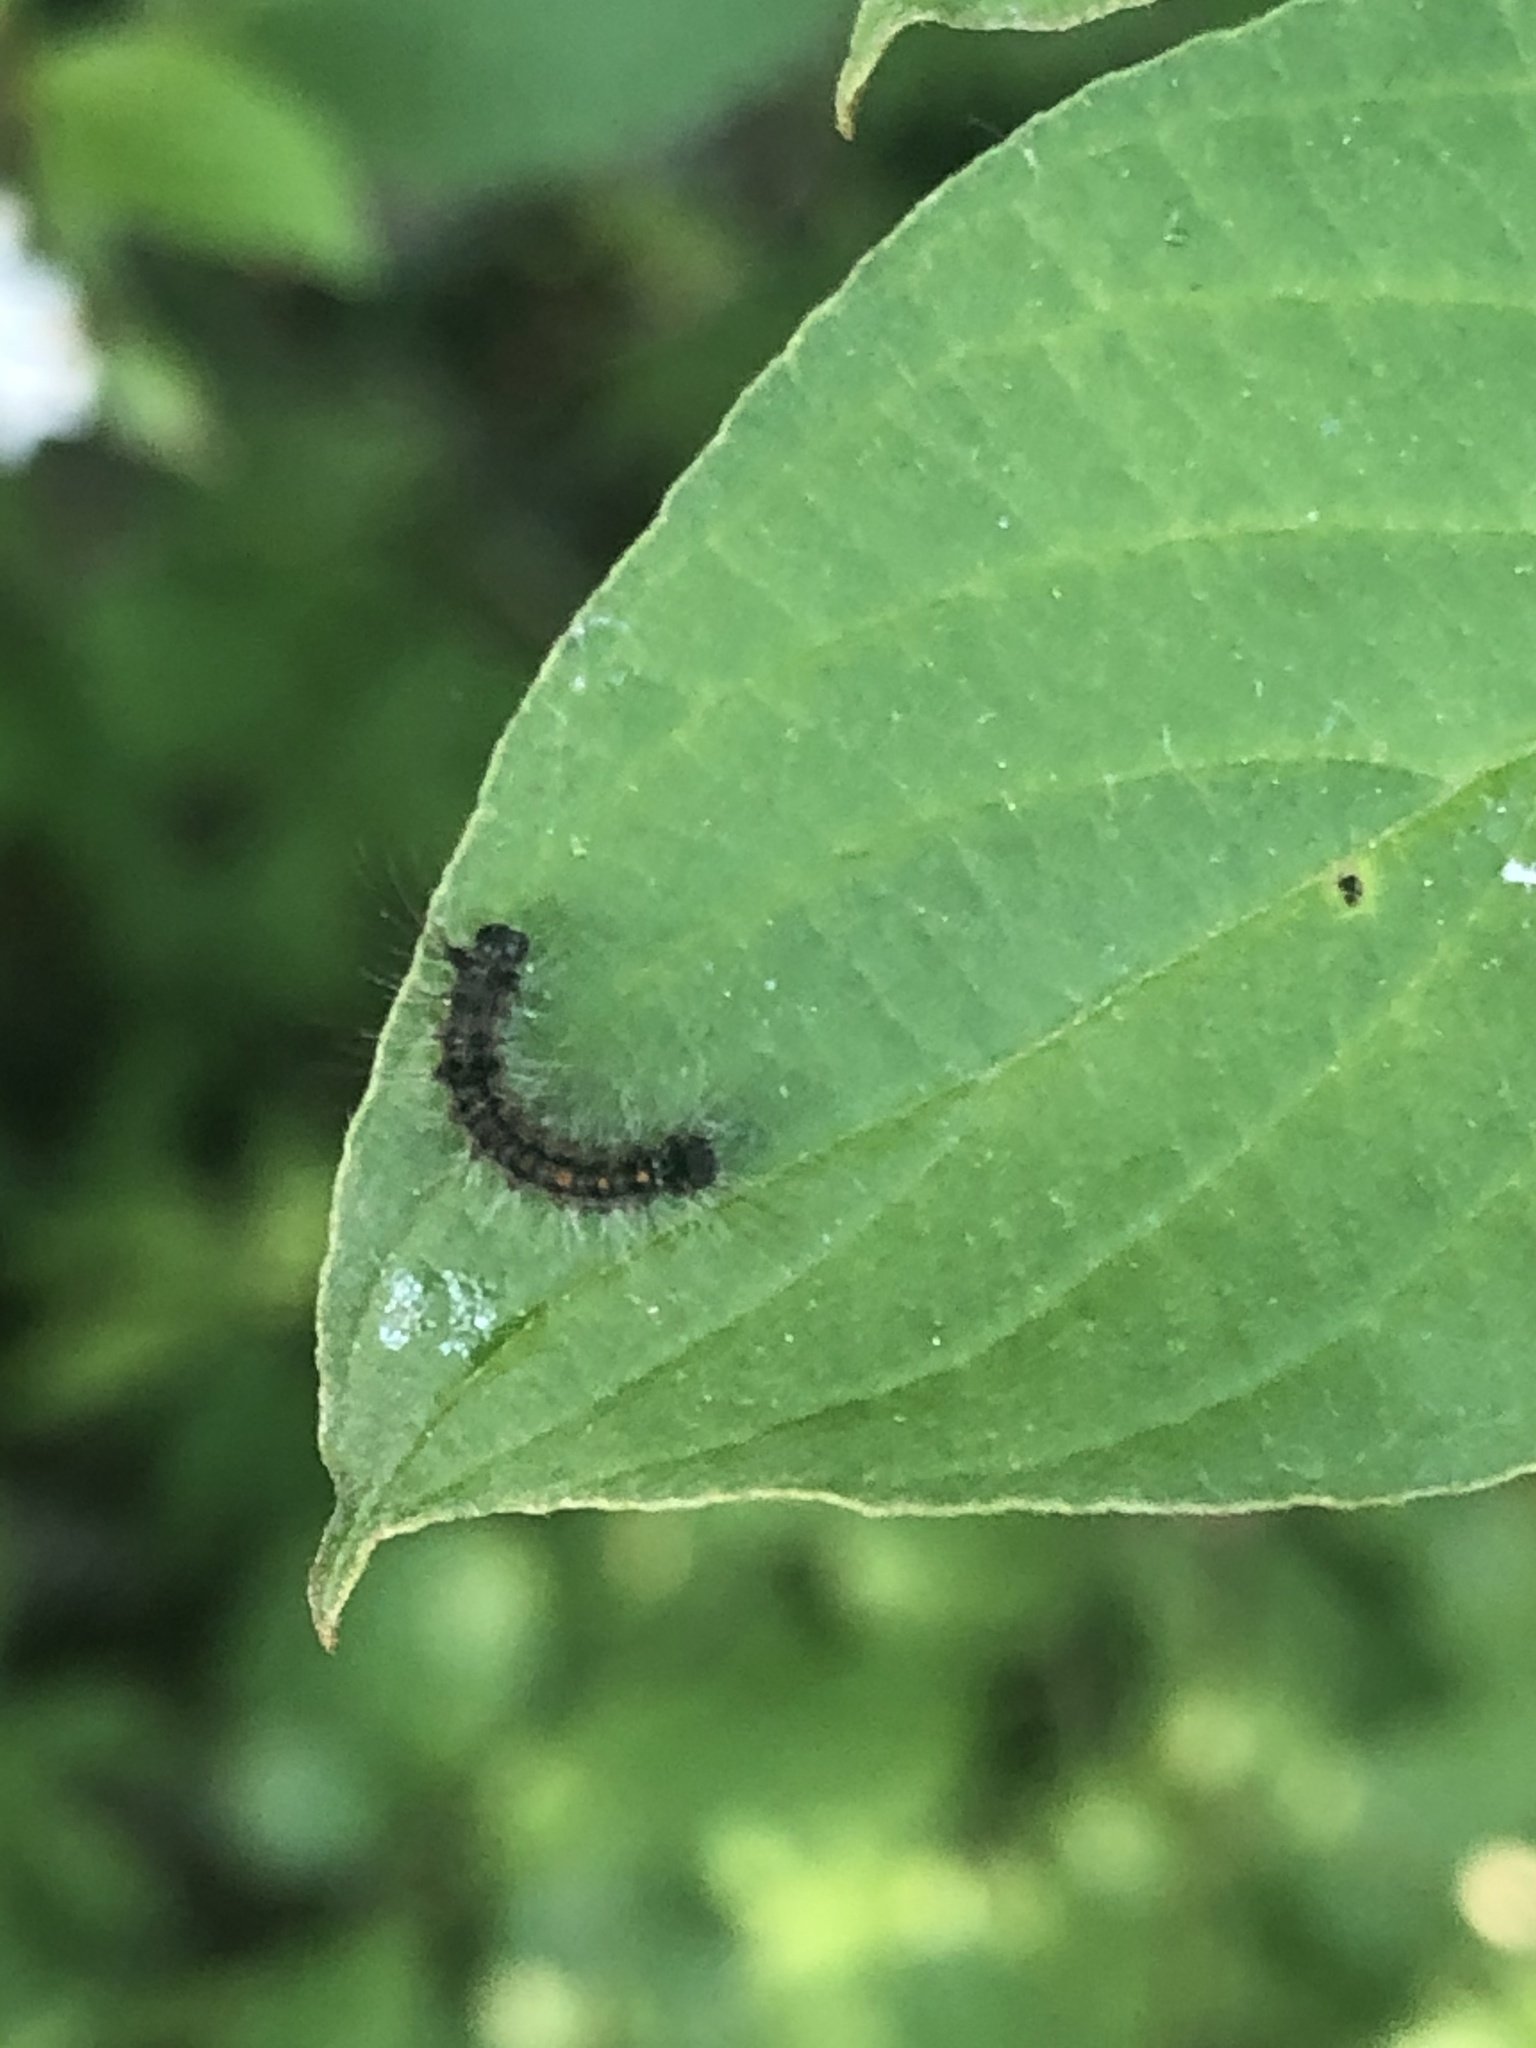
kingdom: Animalia
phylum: Arthropoda
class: Insecta
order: Lepidoptera
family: Erebidae
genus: Lymantria
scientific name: Lymantria dispar
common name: Gypsy moth
